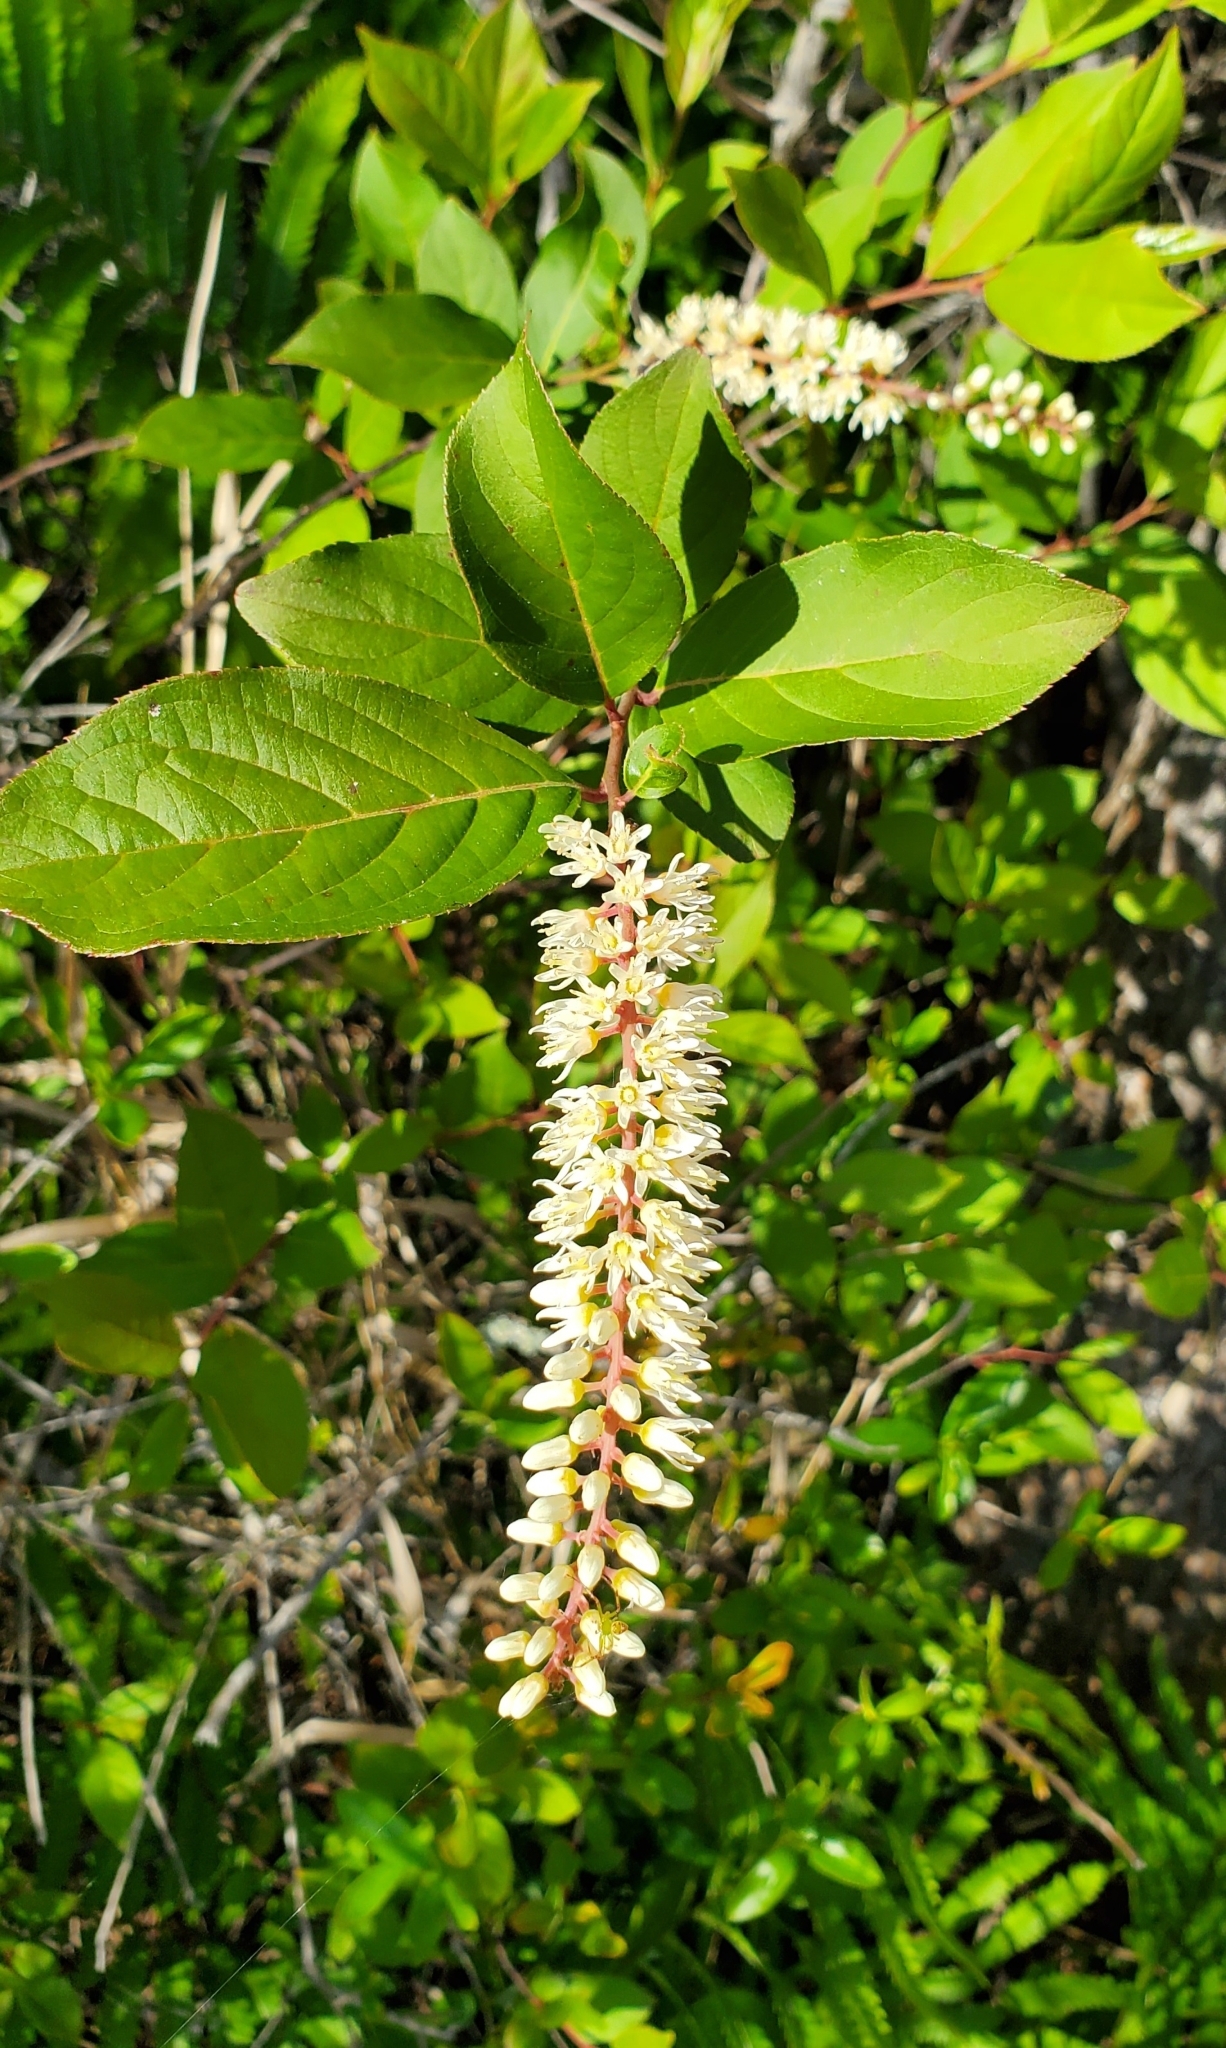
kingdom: Plantae
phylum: Tracheophyta
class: Magnoliopsida
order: Saxifragales
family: Iteaceae
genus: Itea
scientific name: Itea virginica
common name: Sweetspire
